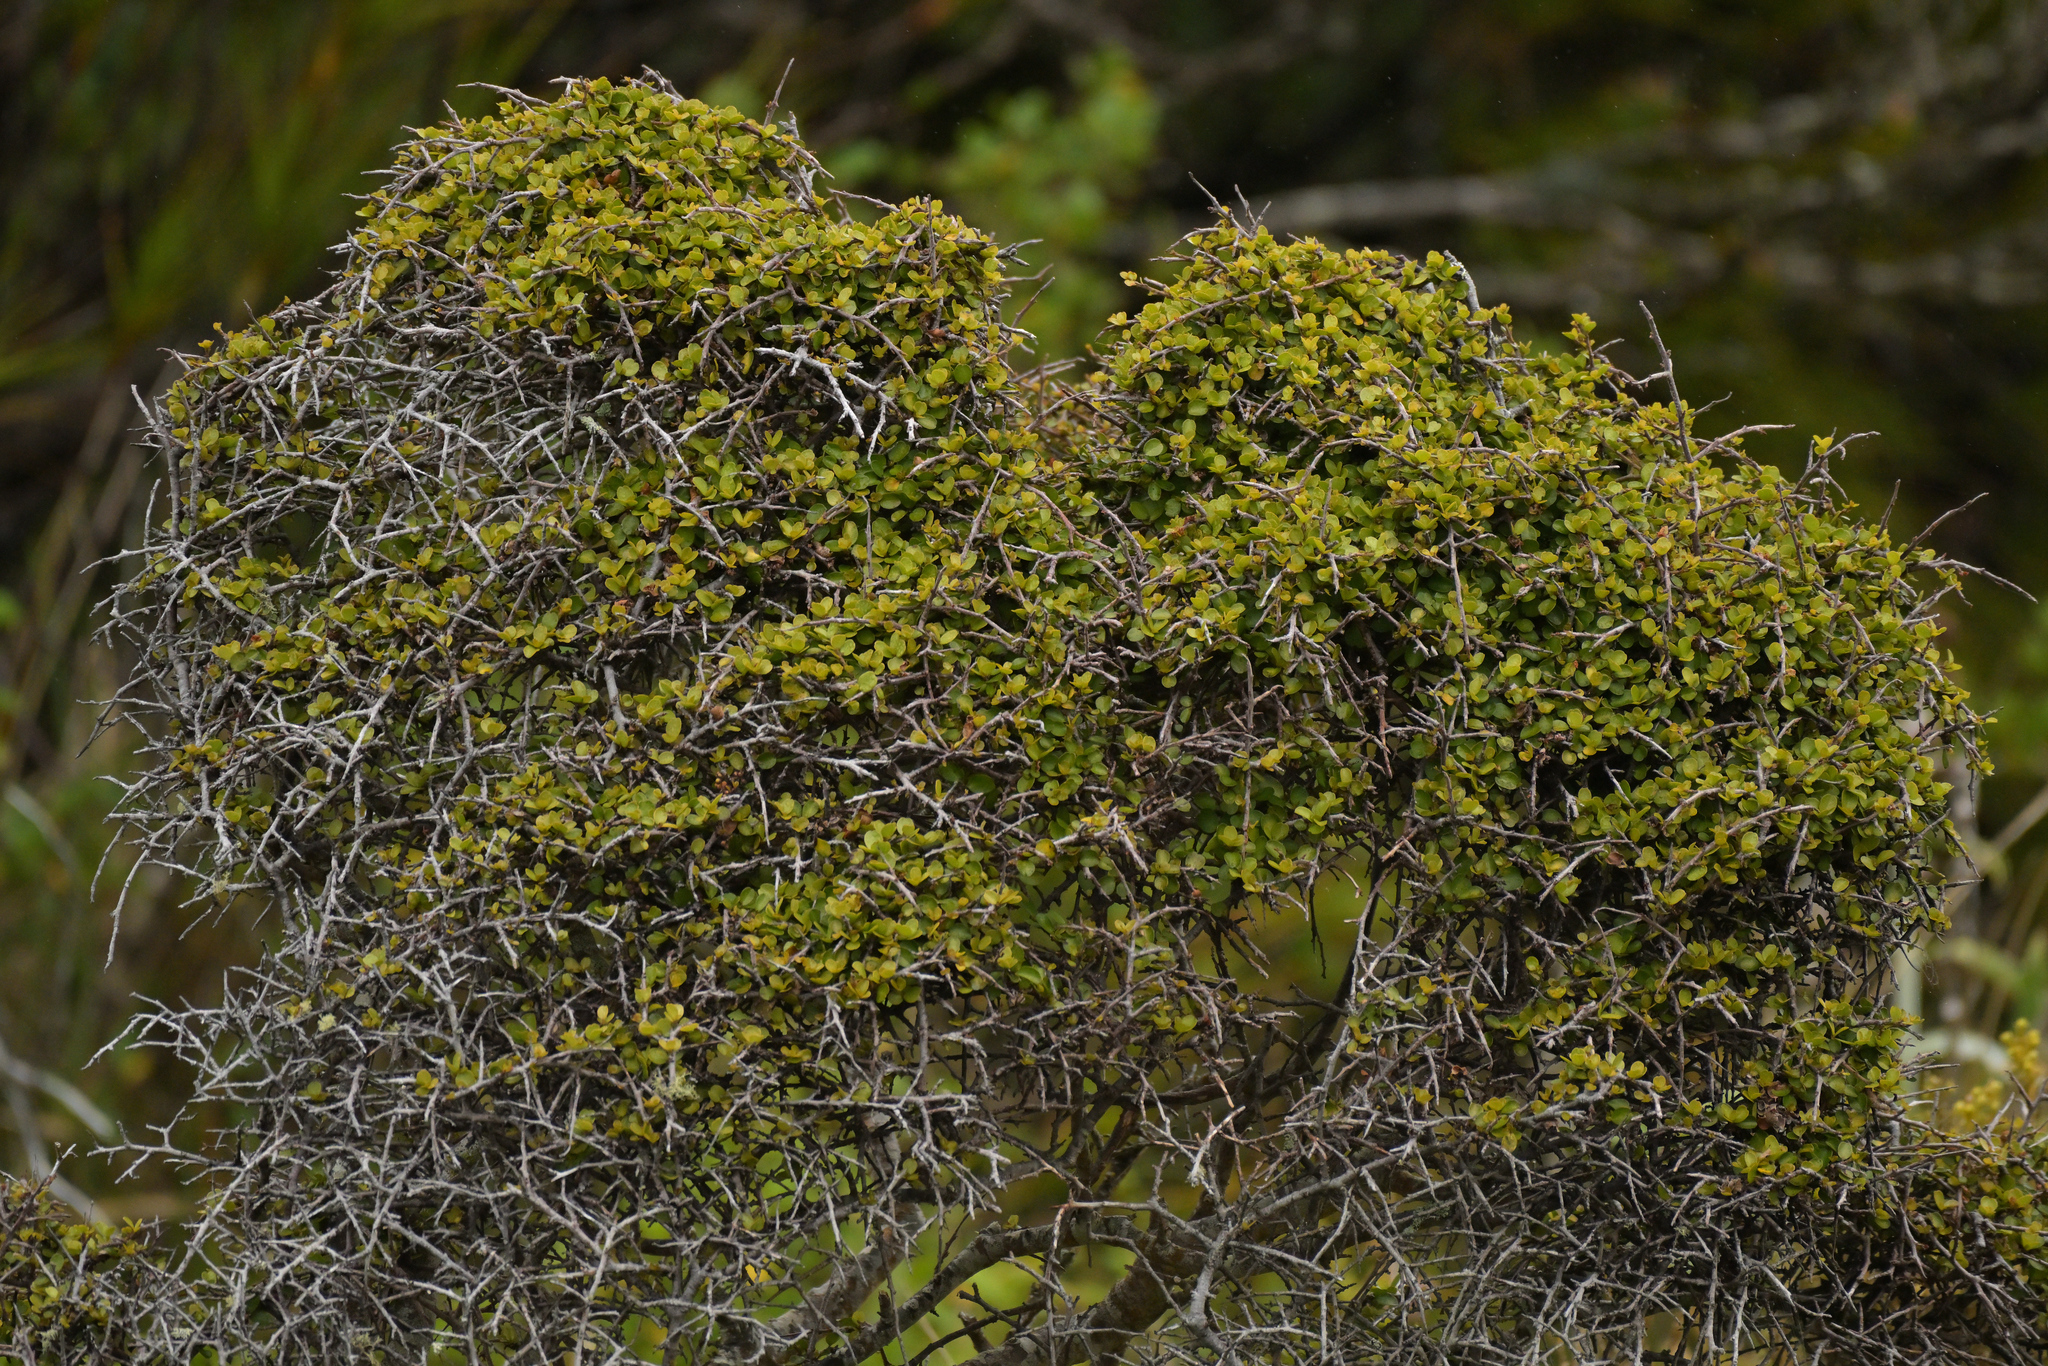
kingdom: Plantae
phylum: Tracheophyta
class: Magnoliopsida
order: Ericales
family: Primulaceae
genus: Myrsine
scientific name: Myrsine divaricata
